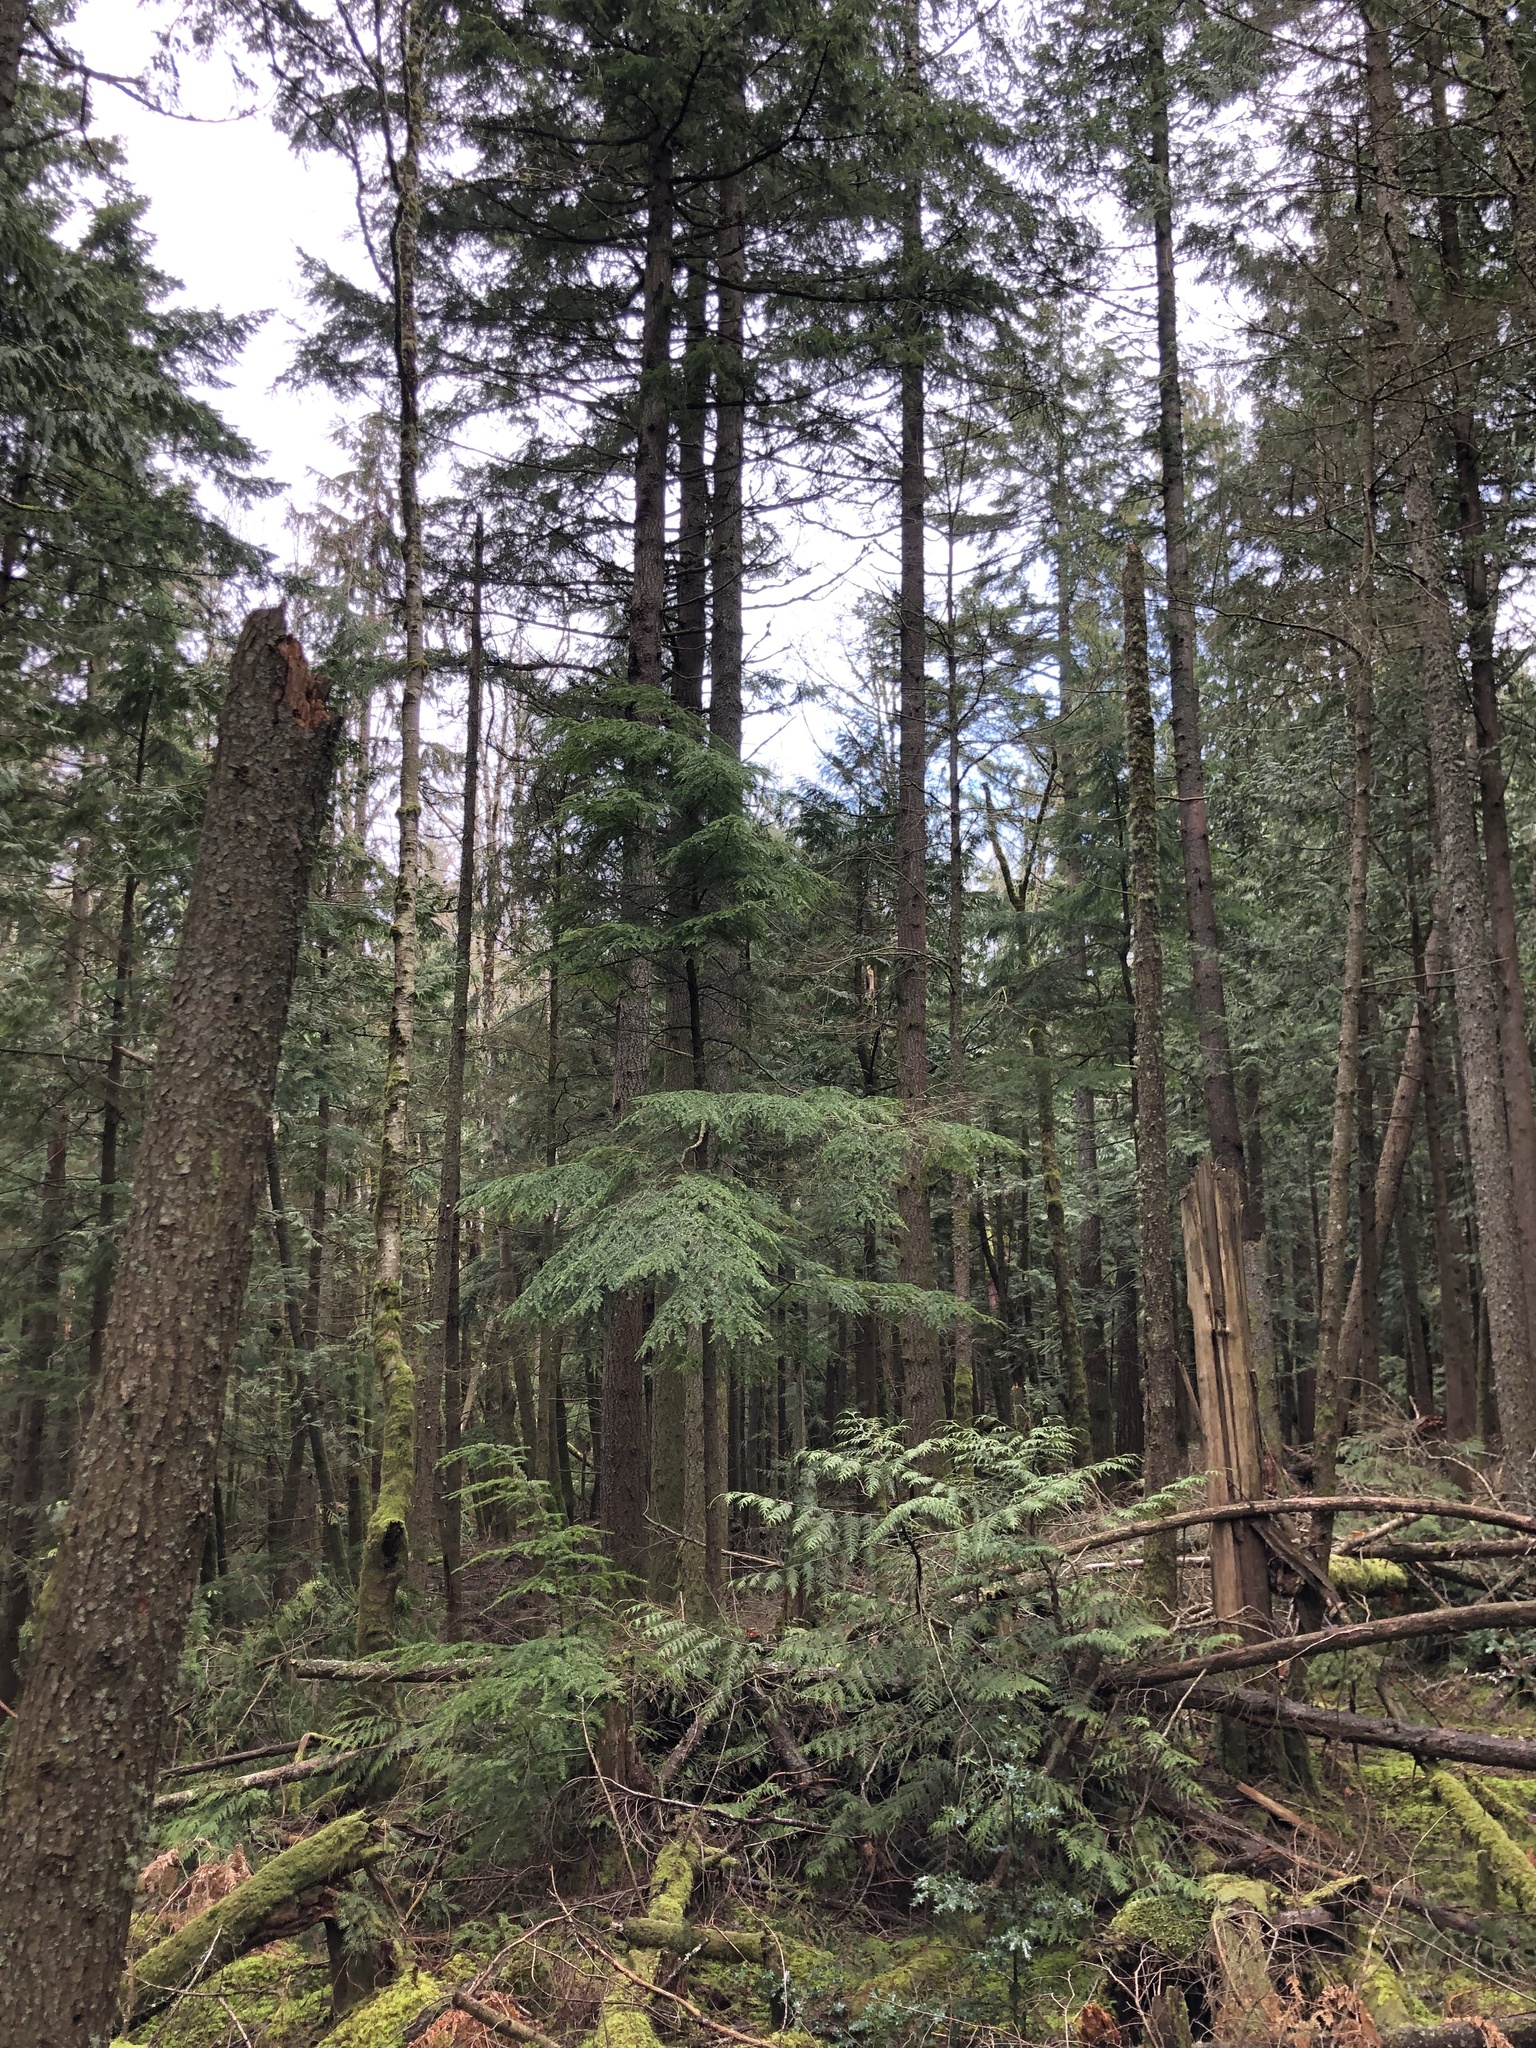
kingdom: Plantae
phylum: Tracheophyta
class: Pinopsida
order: Pinales
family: Cupressaceae
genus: Thuja
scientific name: Thuja plicata
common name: Western red-cedar
